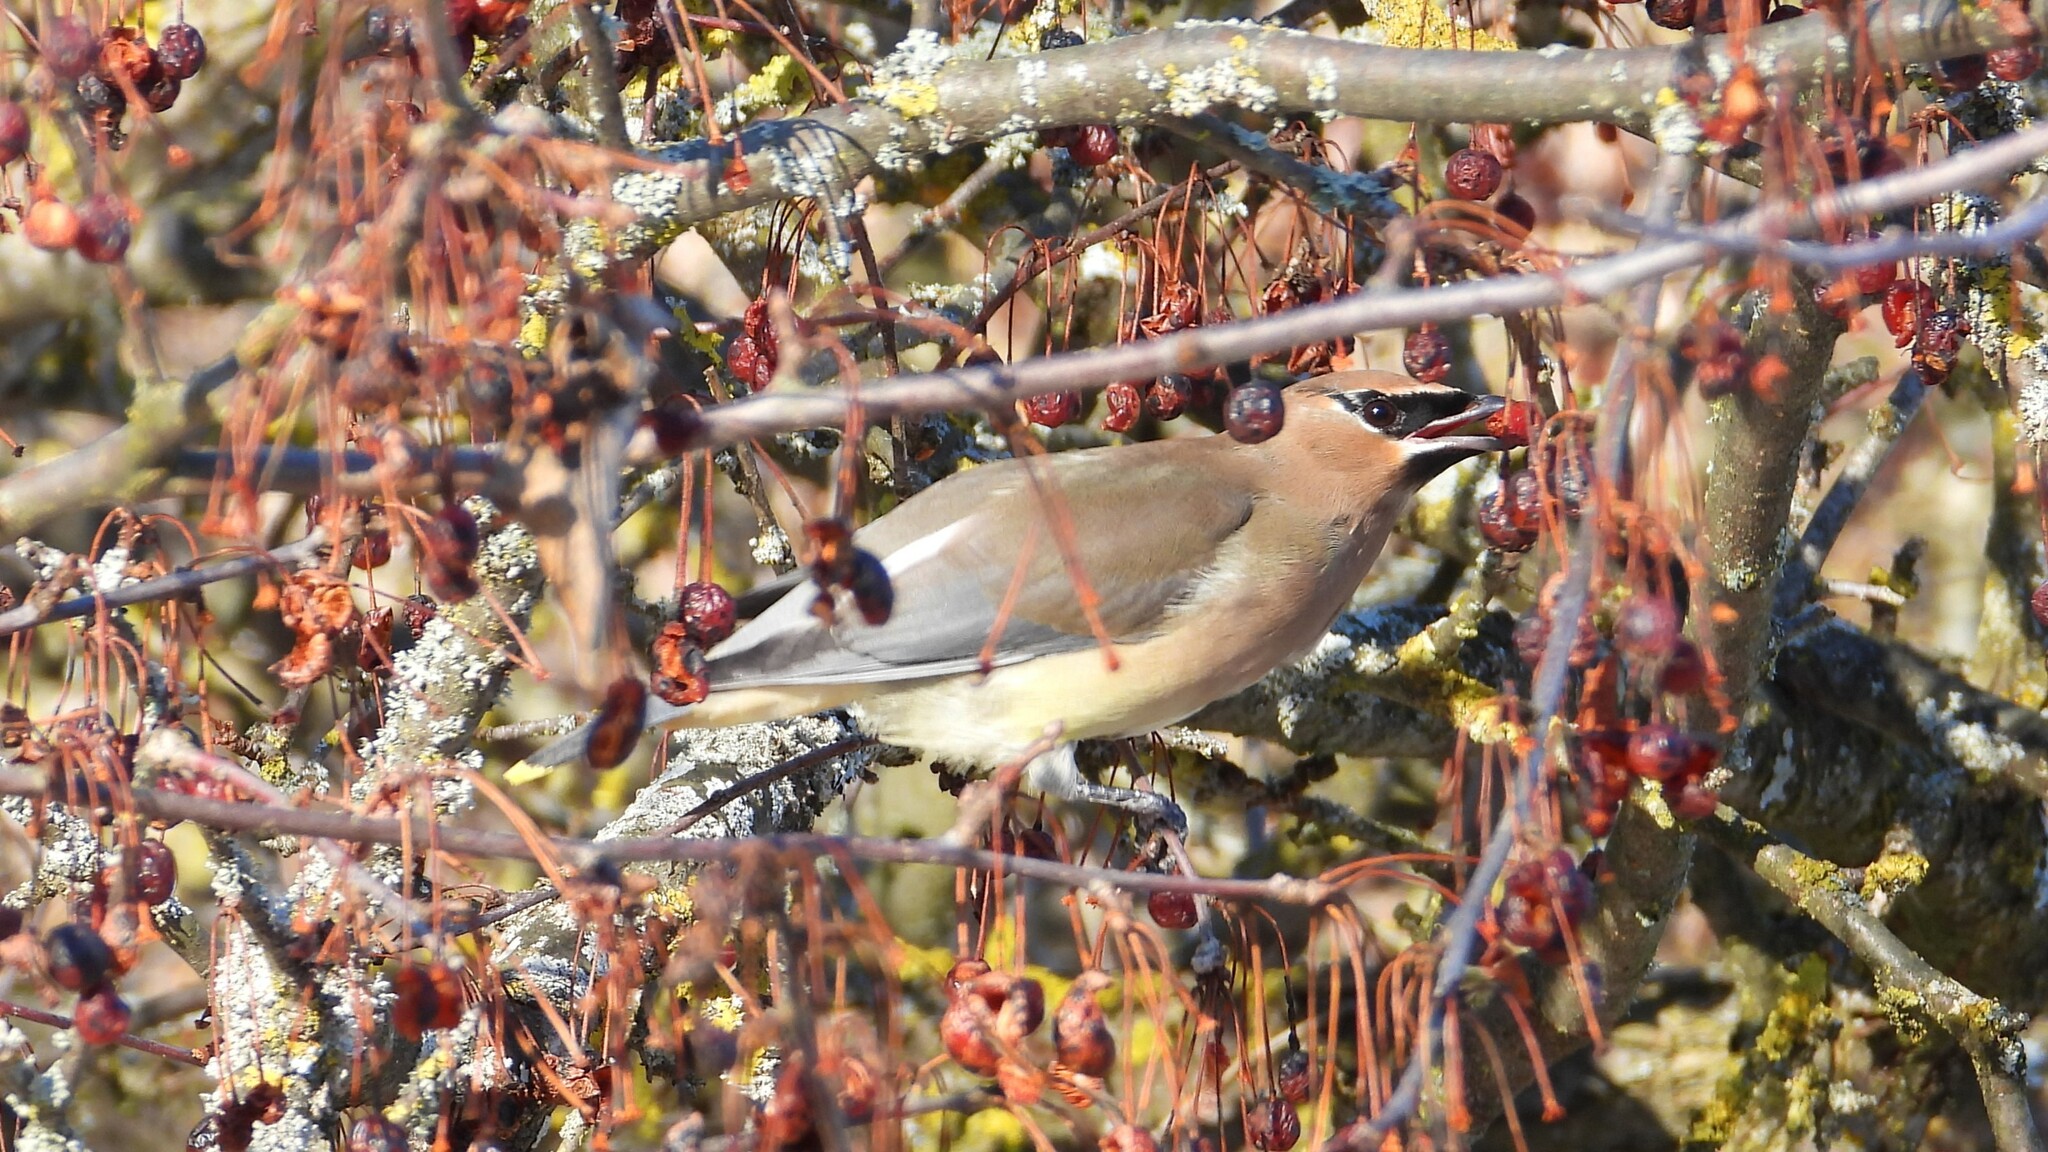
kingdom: Animalia
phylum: Chordata
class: Aves
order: Passeriformes
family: Bombycillidae
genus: Bombycilla
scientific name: Bombycilla cedrorum
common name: Cedar waxwing
